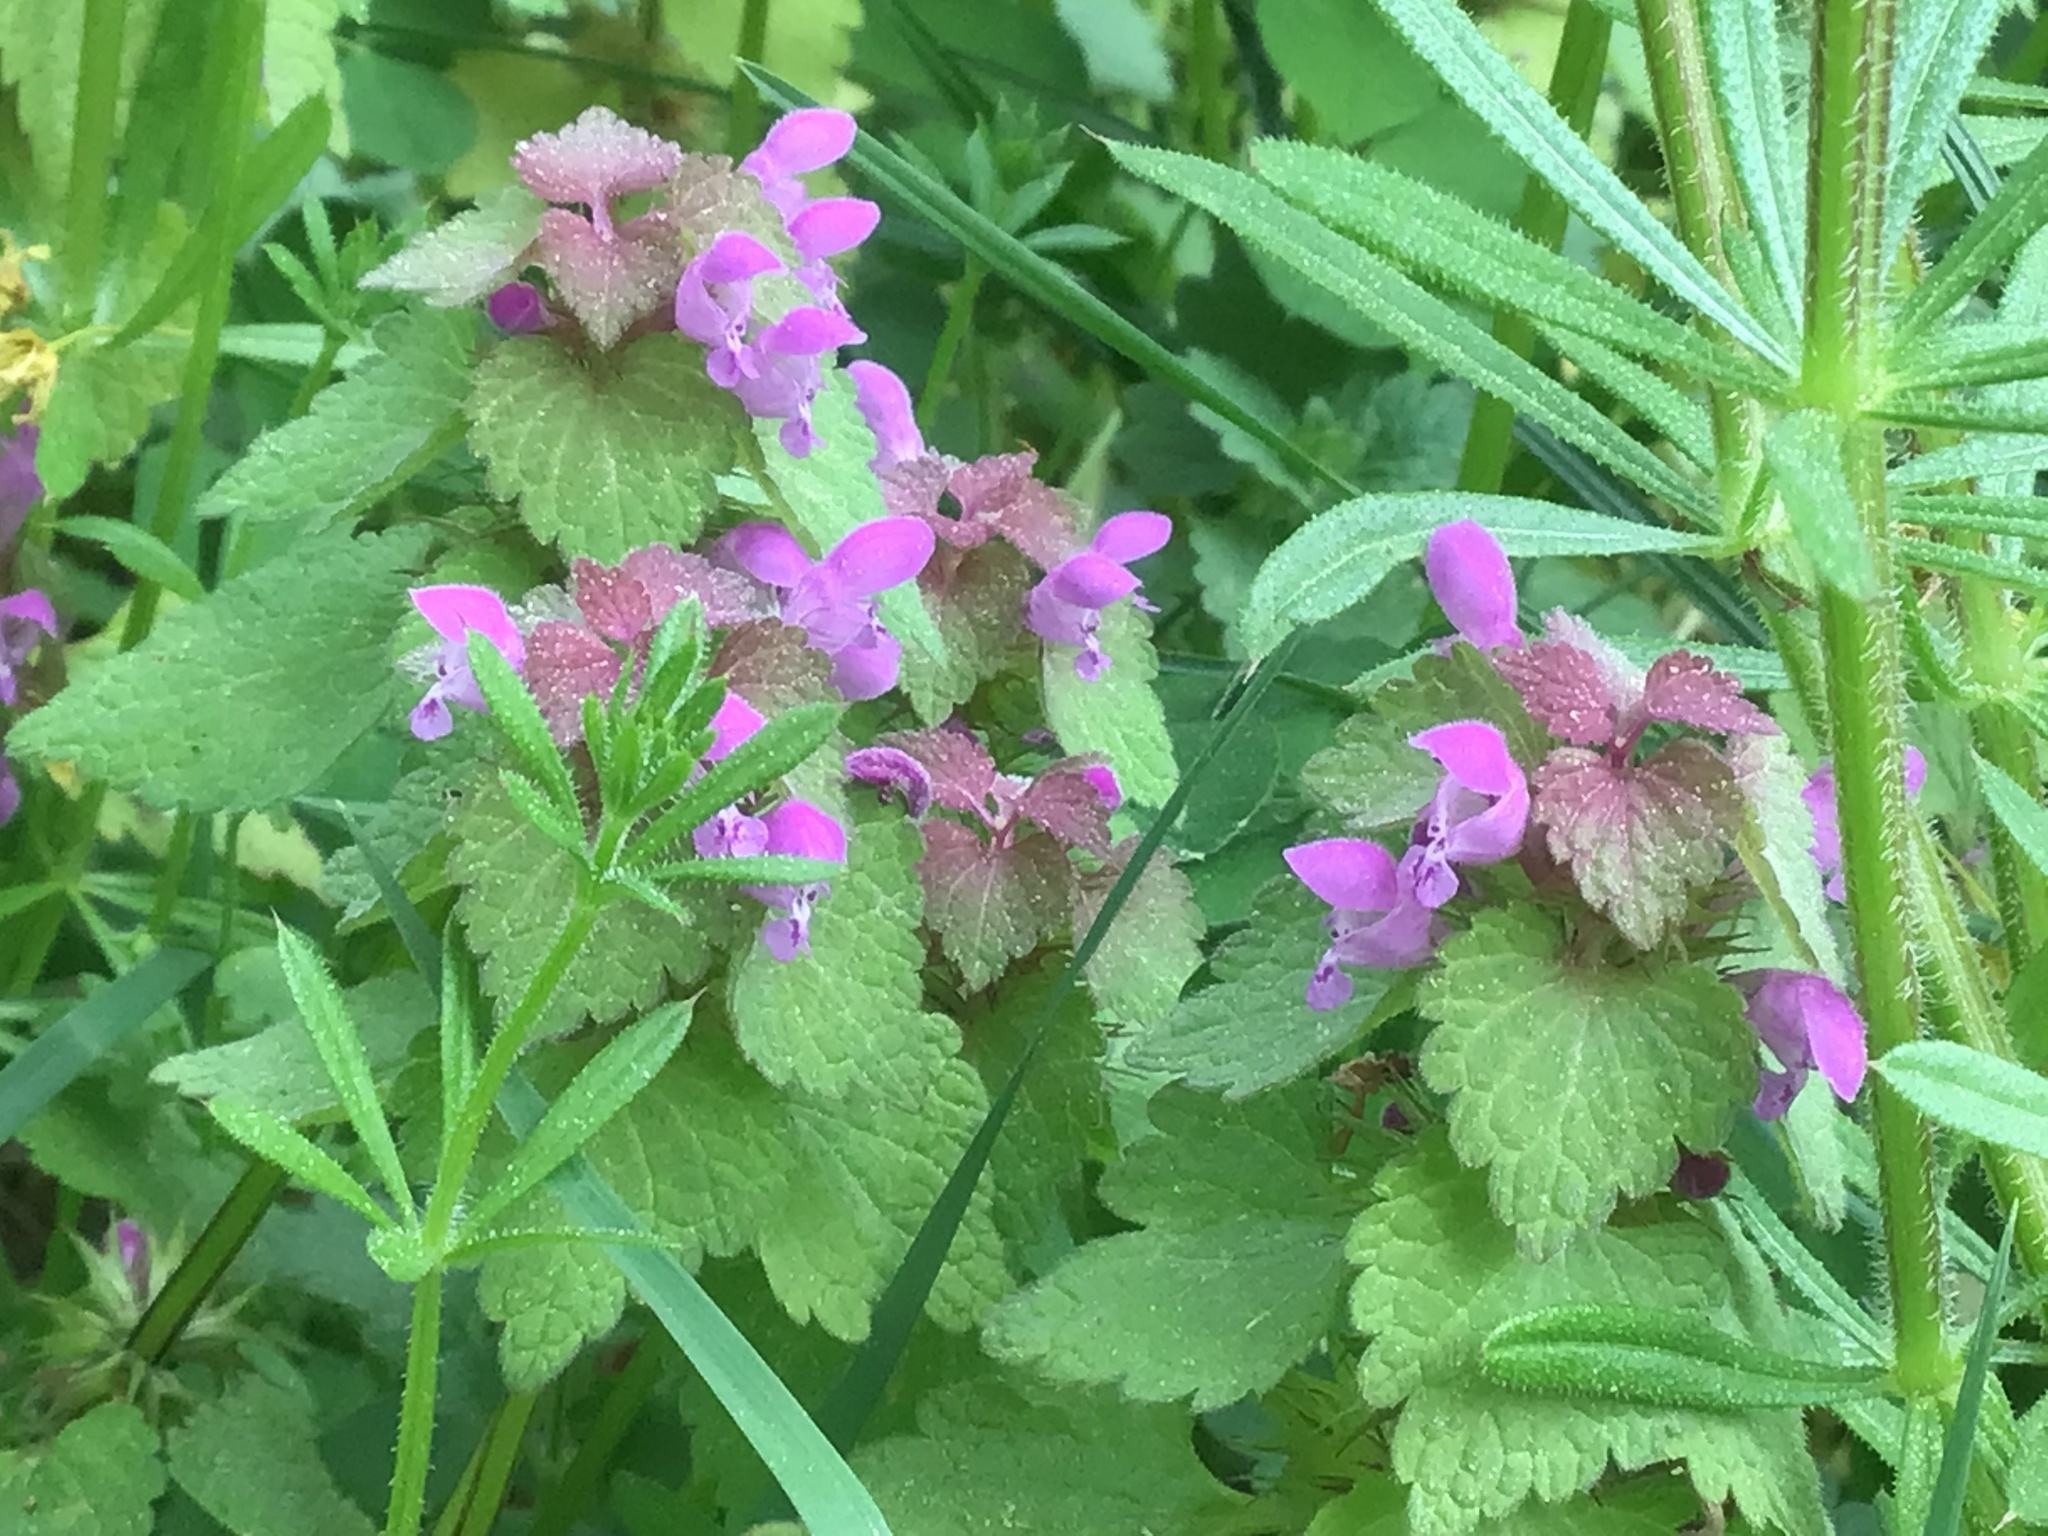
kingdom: Plantae
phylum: Tracheophyta
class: Magnoliopsida
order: Lamiales
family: Lamiaceae
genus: Lamium
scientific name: Lamium purpureum
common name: Red dead-nettle
